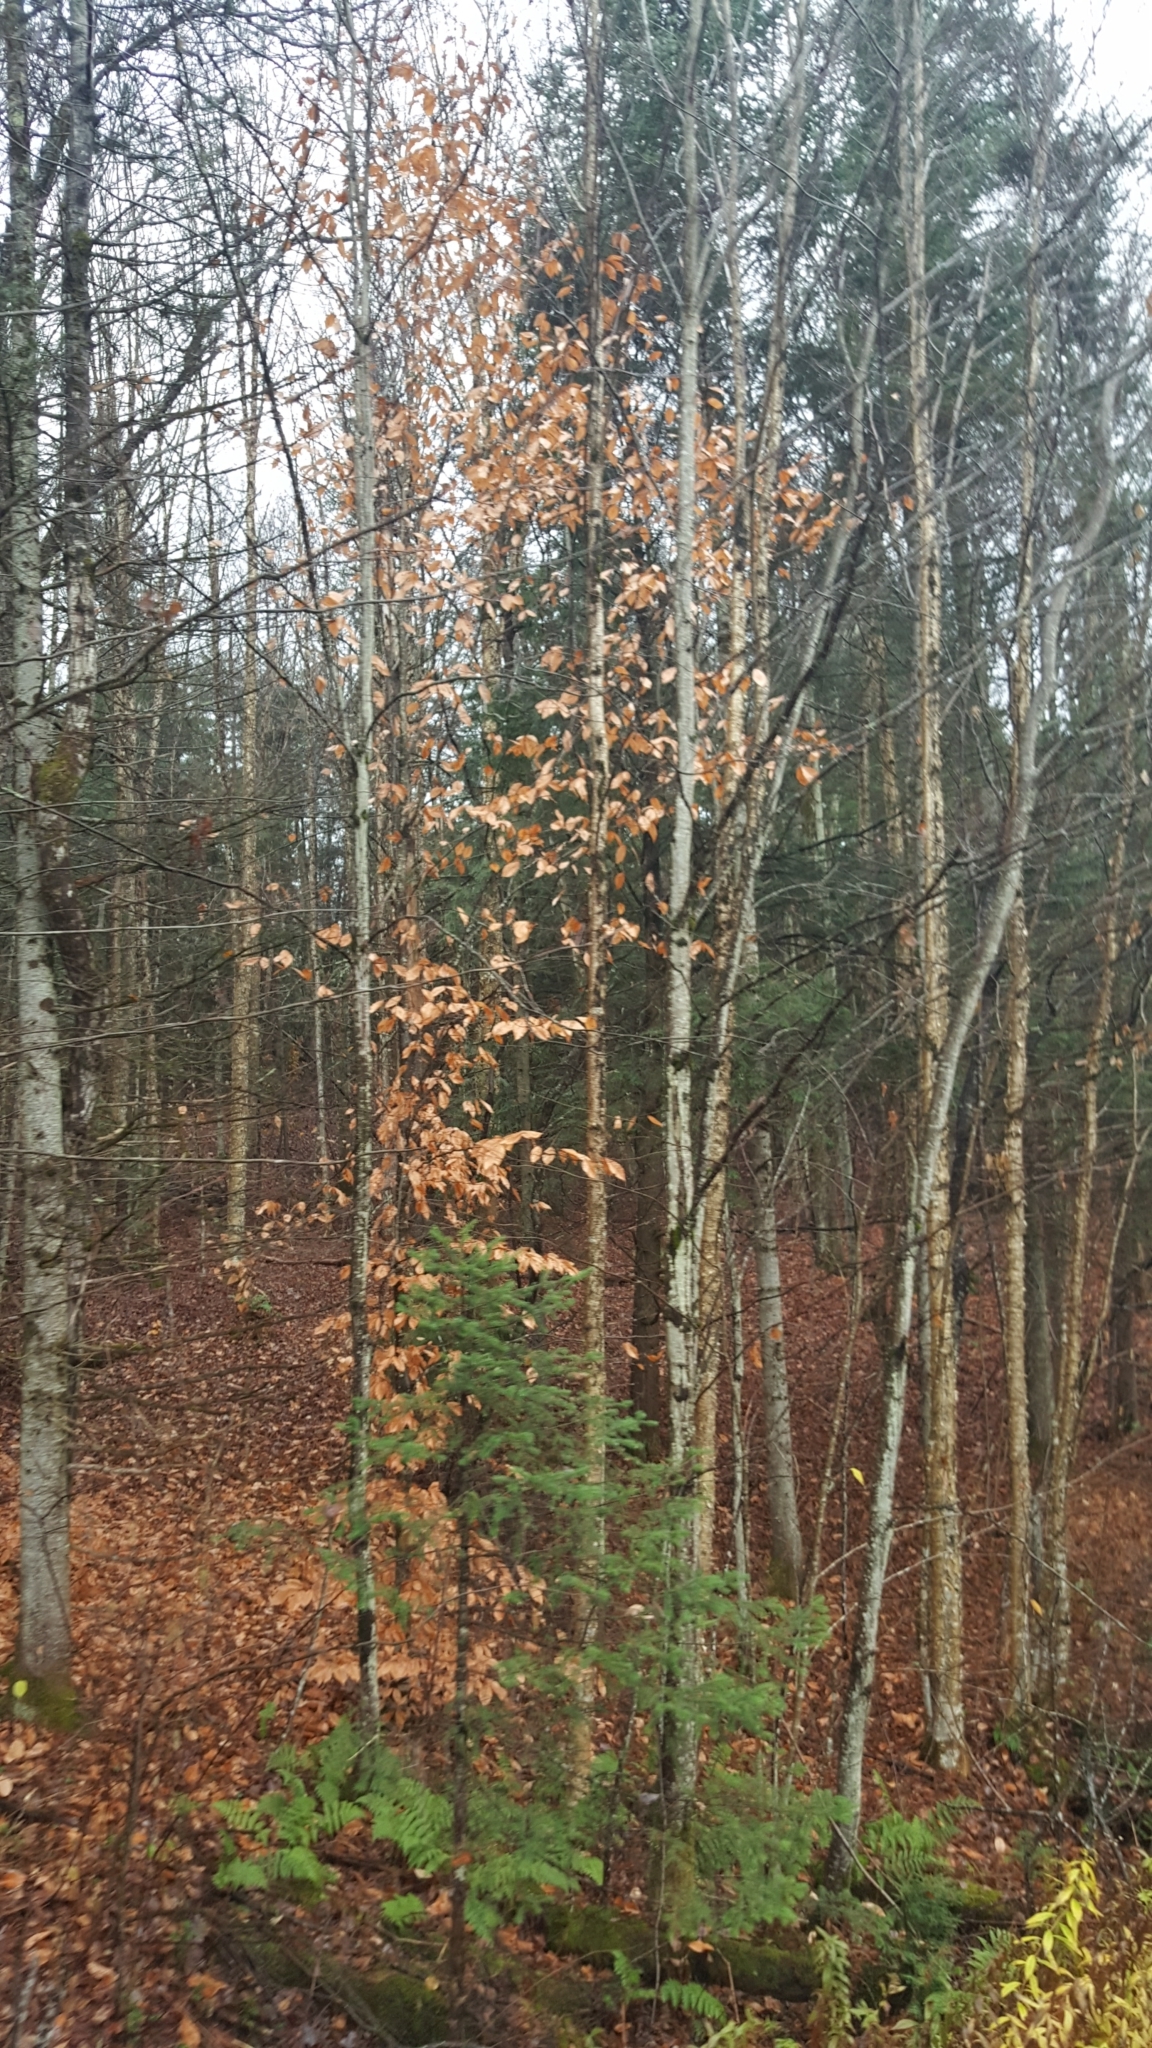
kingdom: Plantae
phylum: Tracheophyta
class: Magnoliopsida
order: Fagales
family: Fagaceae
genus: Fagus
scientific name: Fagus grandifolia
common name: American beech
